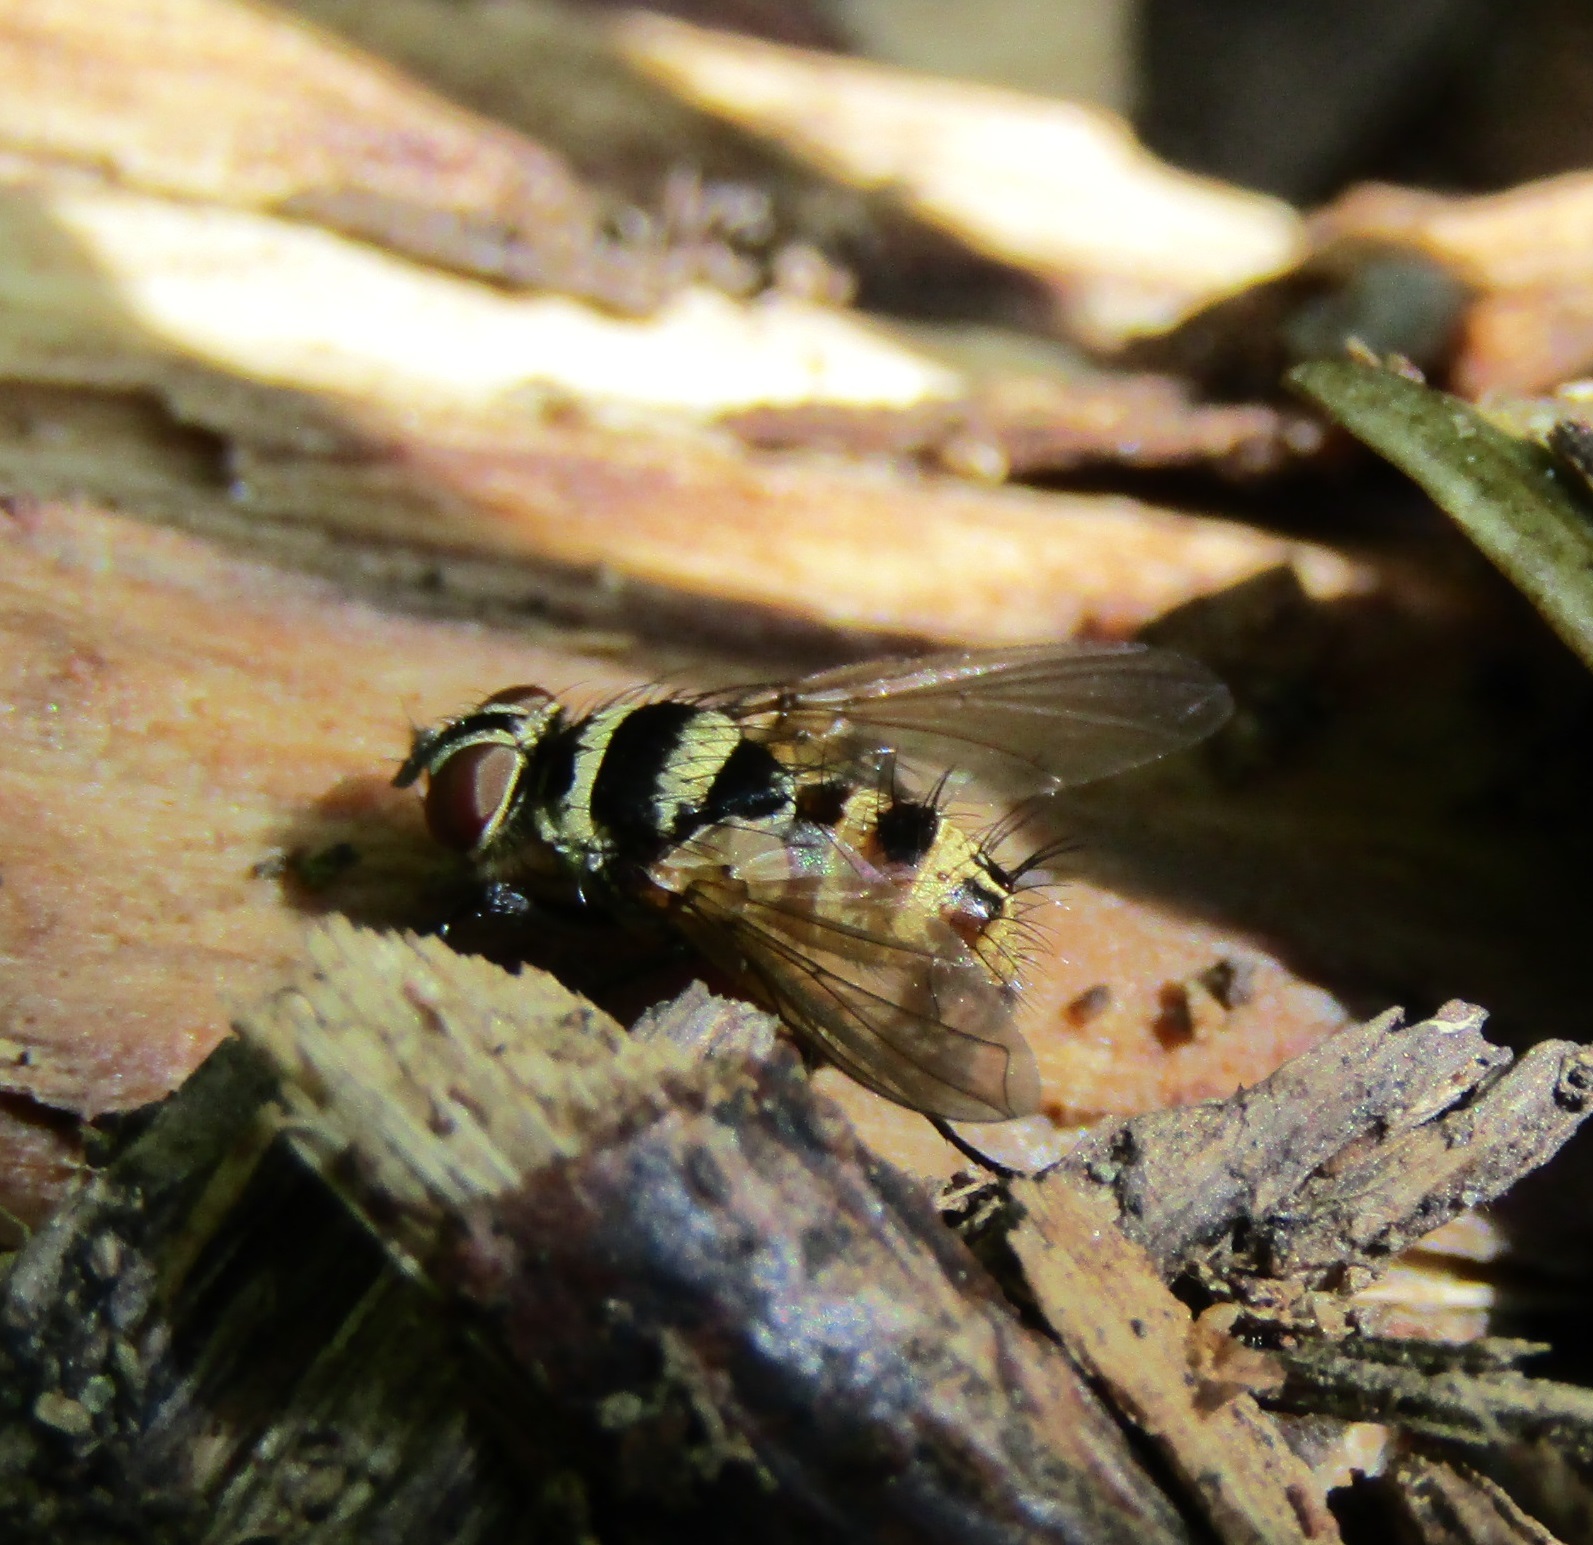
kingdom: Animalia
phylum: Arthropoda
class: Insecta
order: Diptera
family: Tachinidae
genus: Trigonospila
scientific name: Trigonospila brevifacies
